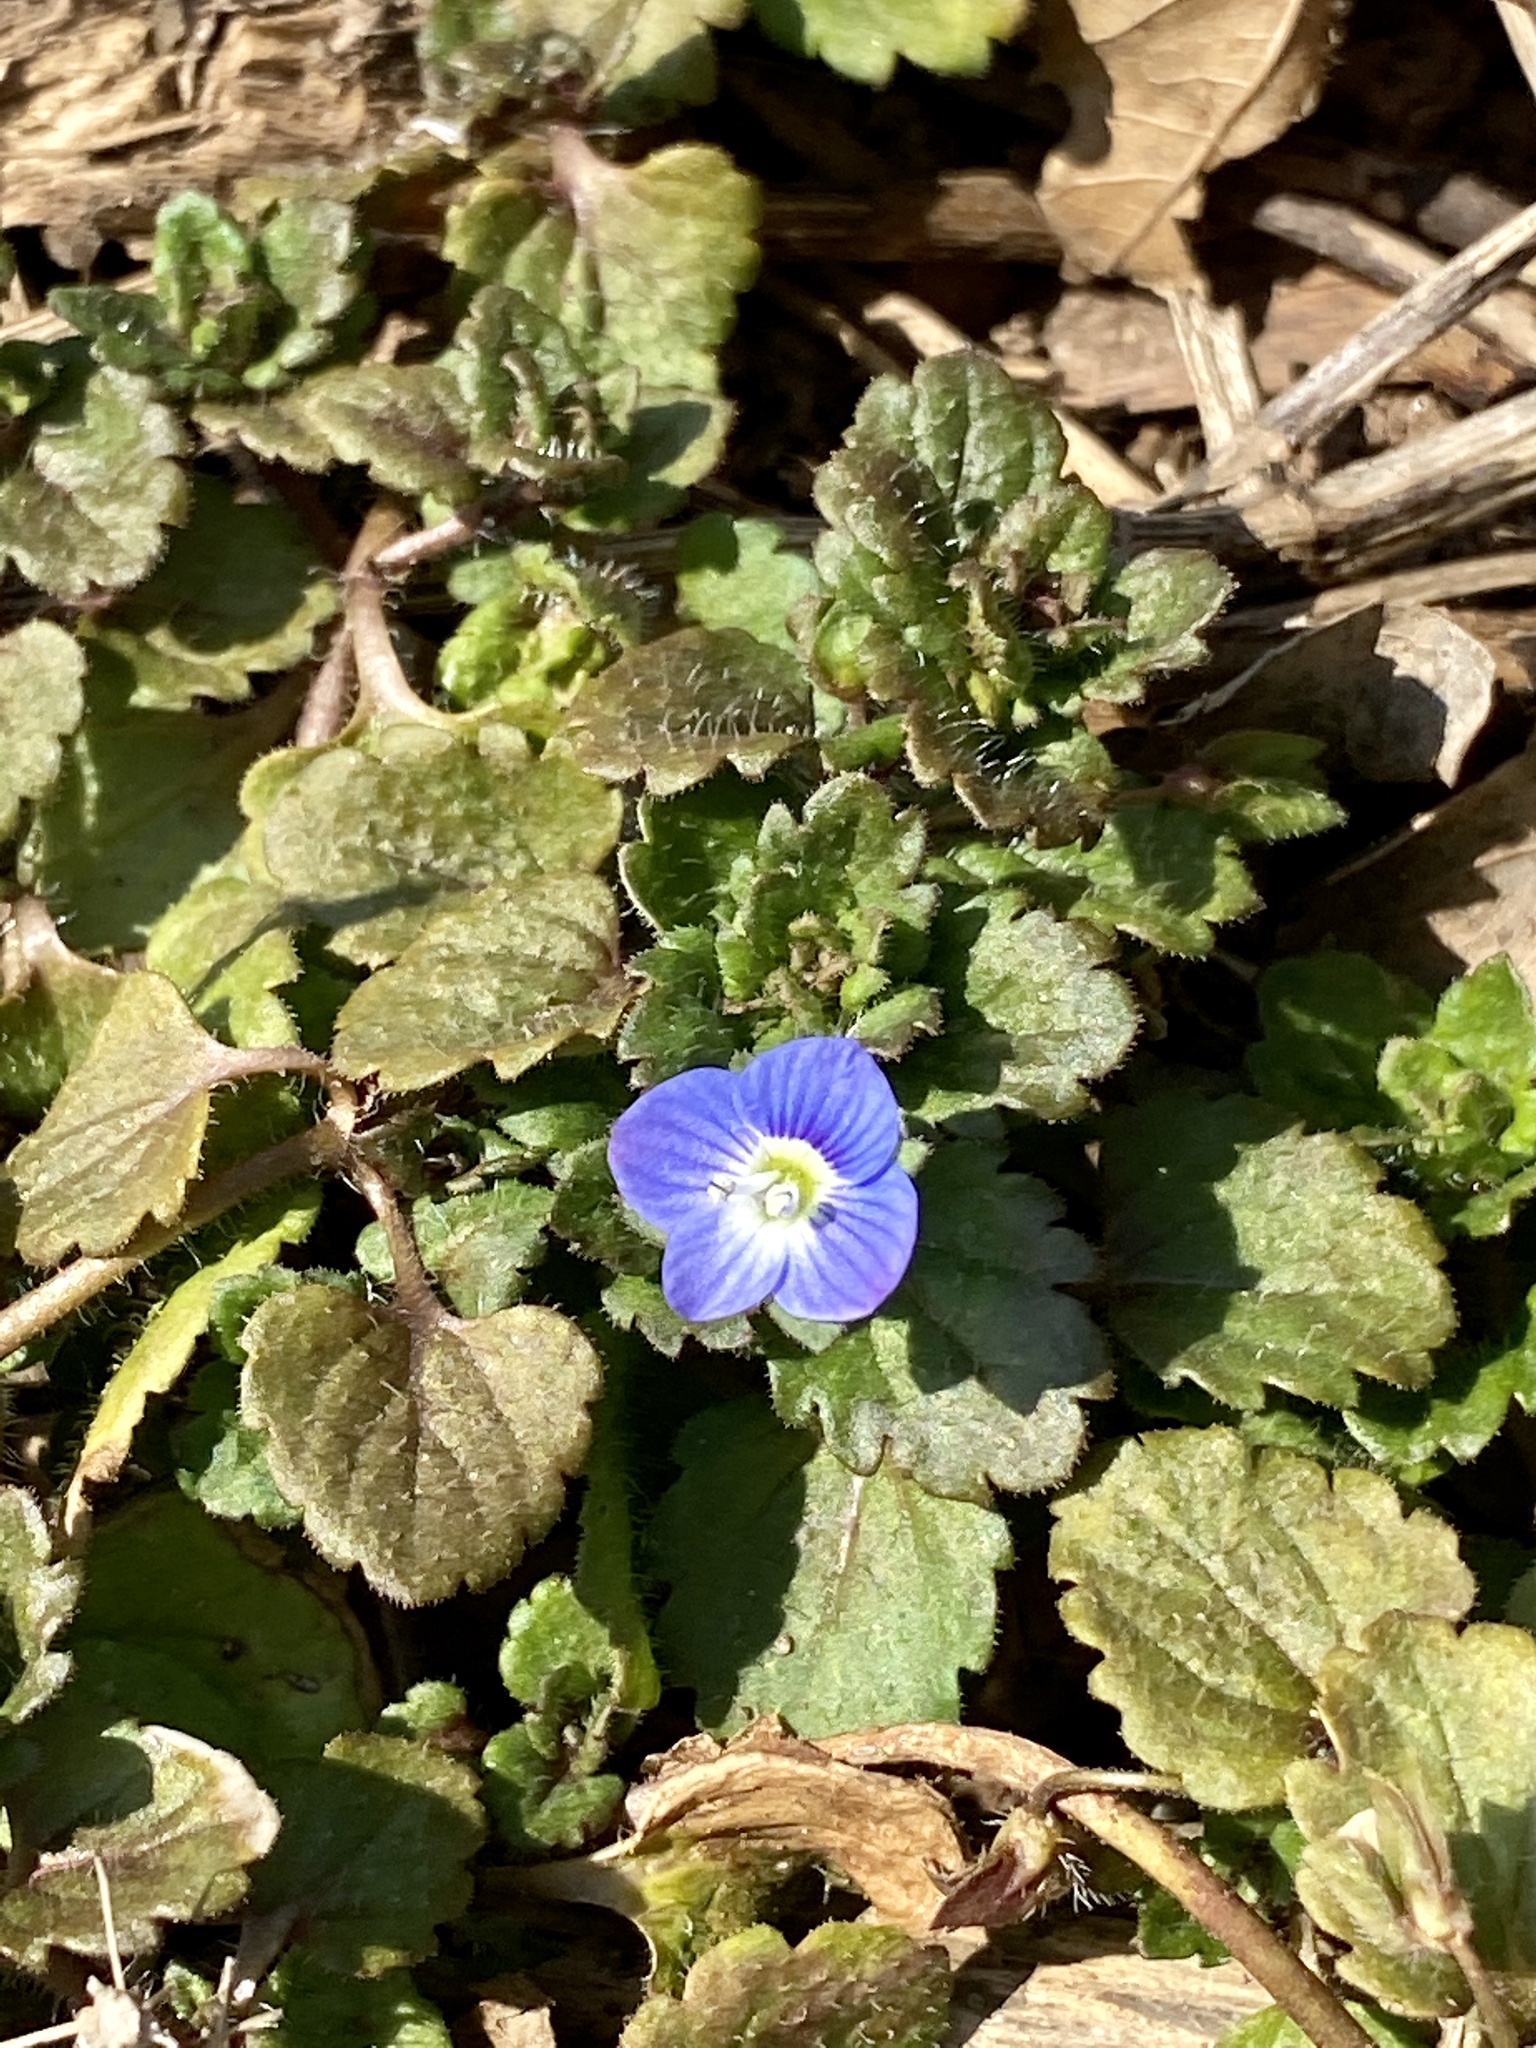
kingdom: Plantae
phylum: Tracheophyta
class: Magnoliopsida
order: Lamiales
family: Plantaginaceae
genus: Veronica
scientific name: Veronica persica
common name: Common field-speedwell
